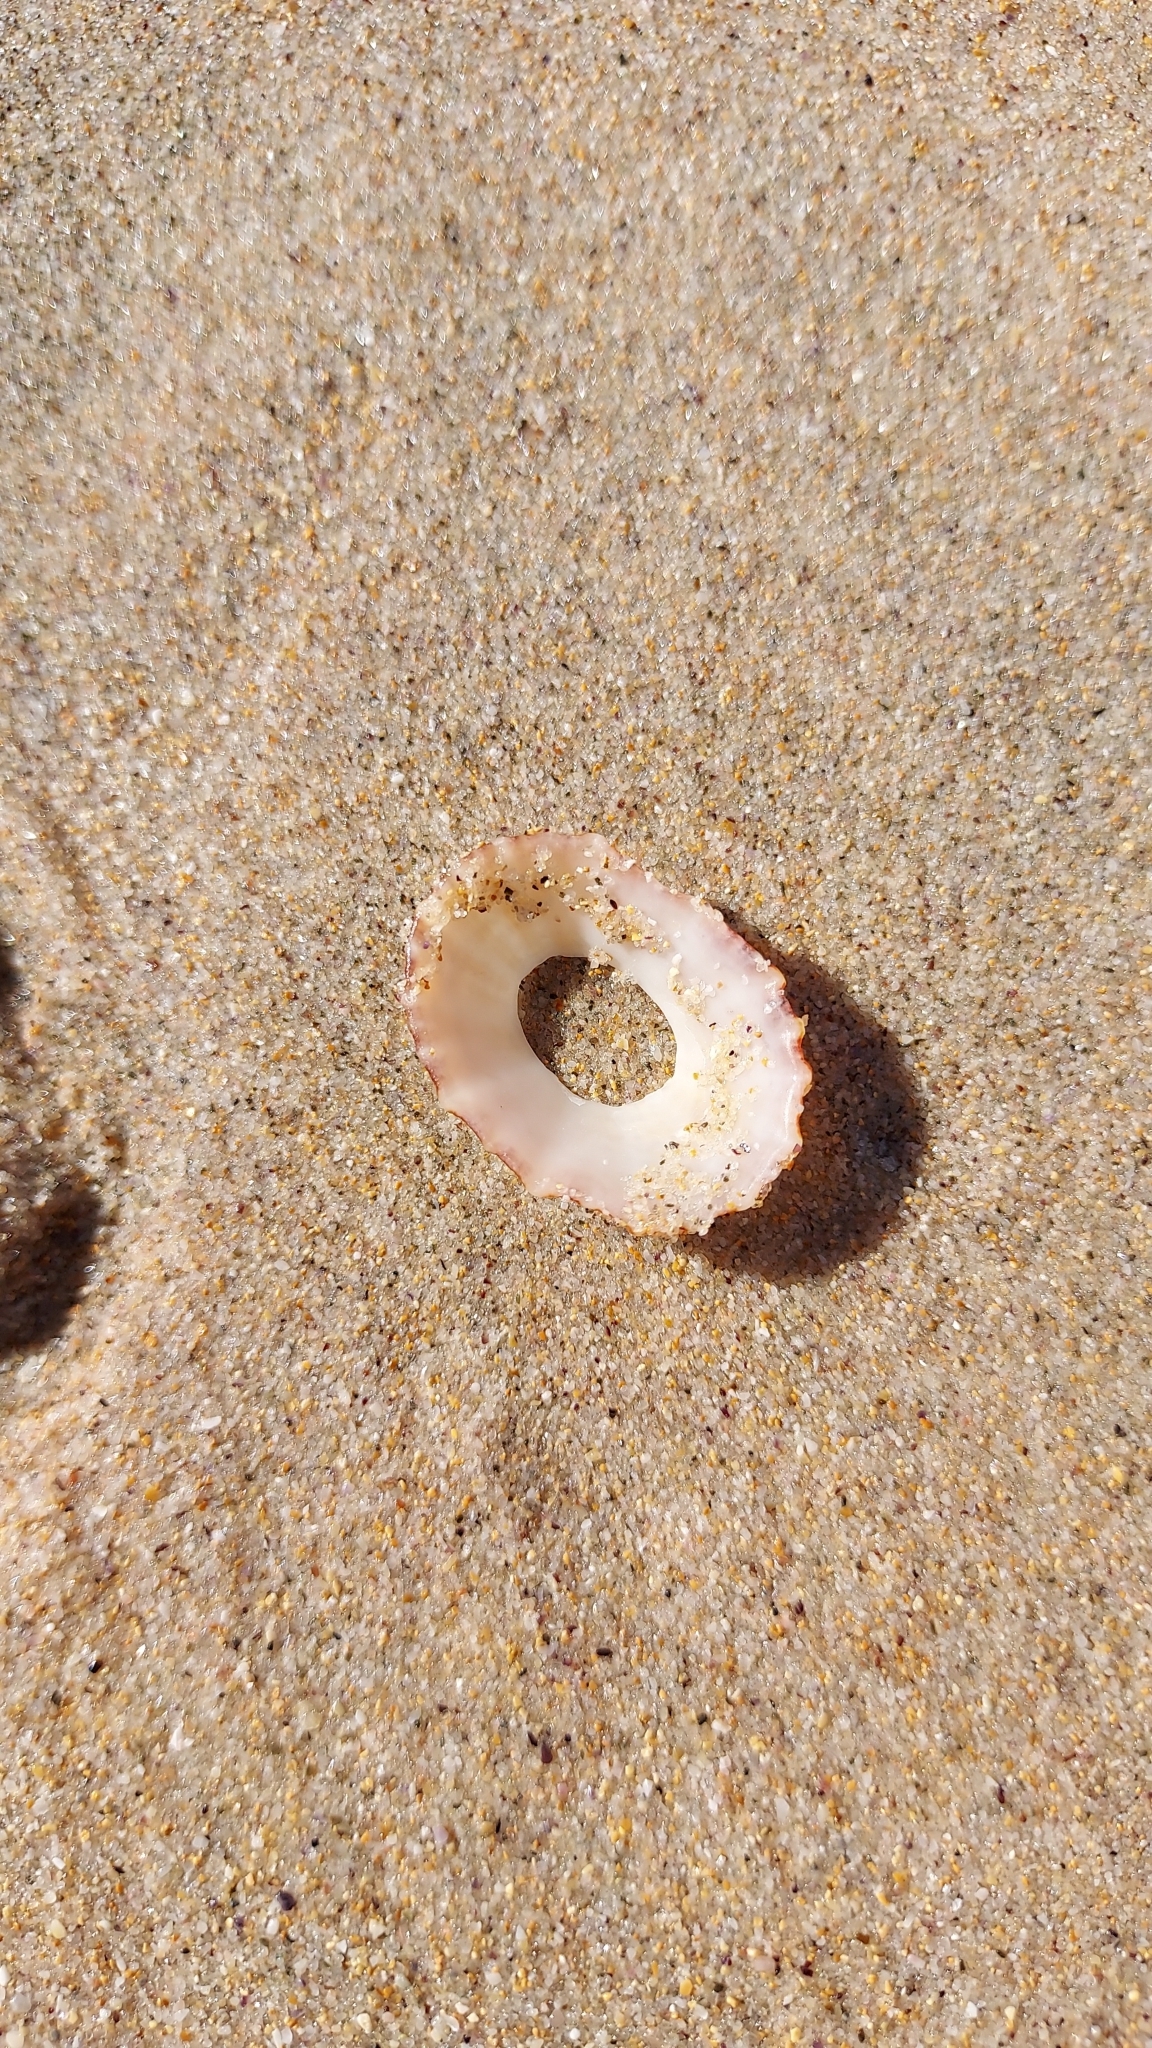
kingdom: Animalia
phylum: Mollusca
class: Gastropoda
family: Patellidae
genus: Scutellastra
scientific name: Scutellastra peronii
